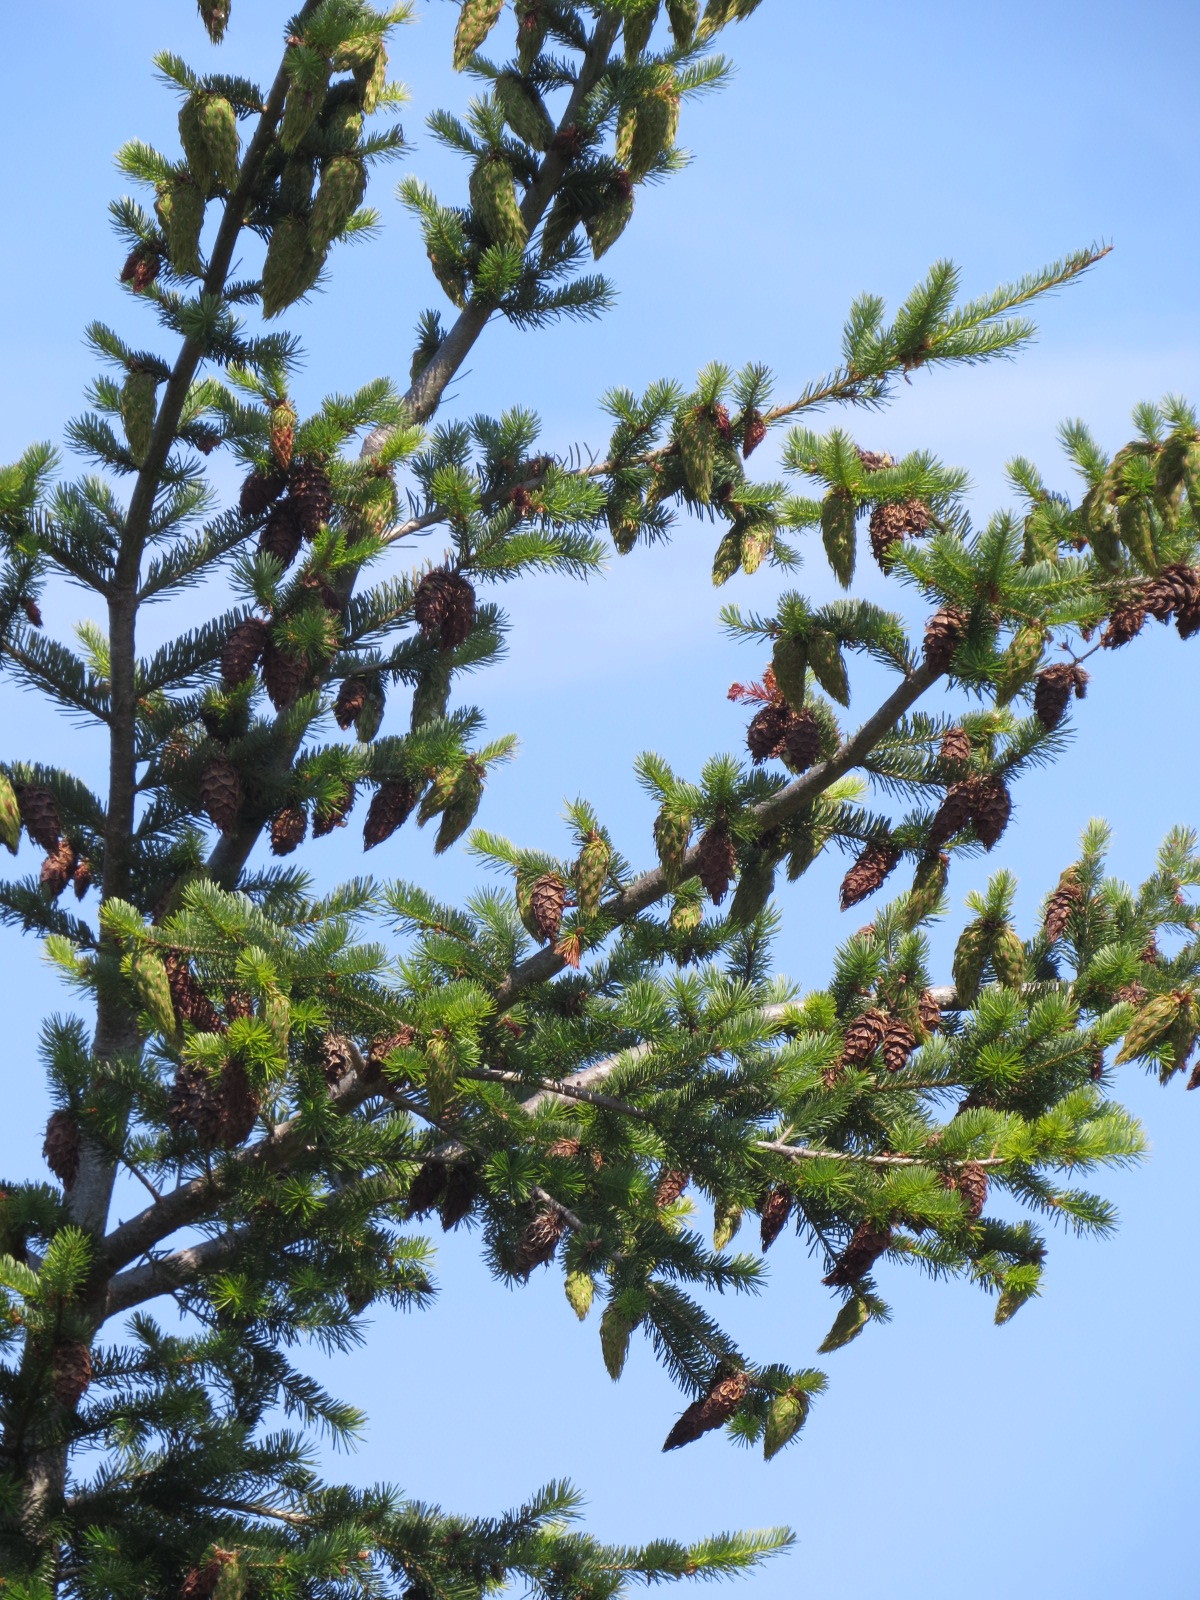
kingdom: Plantae
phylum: Tracheophyta
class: Pinopsida
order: Pinales
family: Pinaceae
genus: Pseudotsuga
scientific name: Pseudotsuga menziesii
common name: Douglas fir
